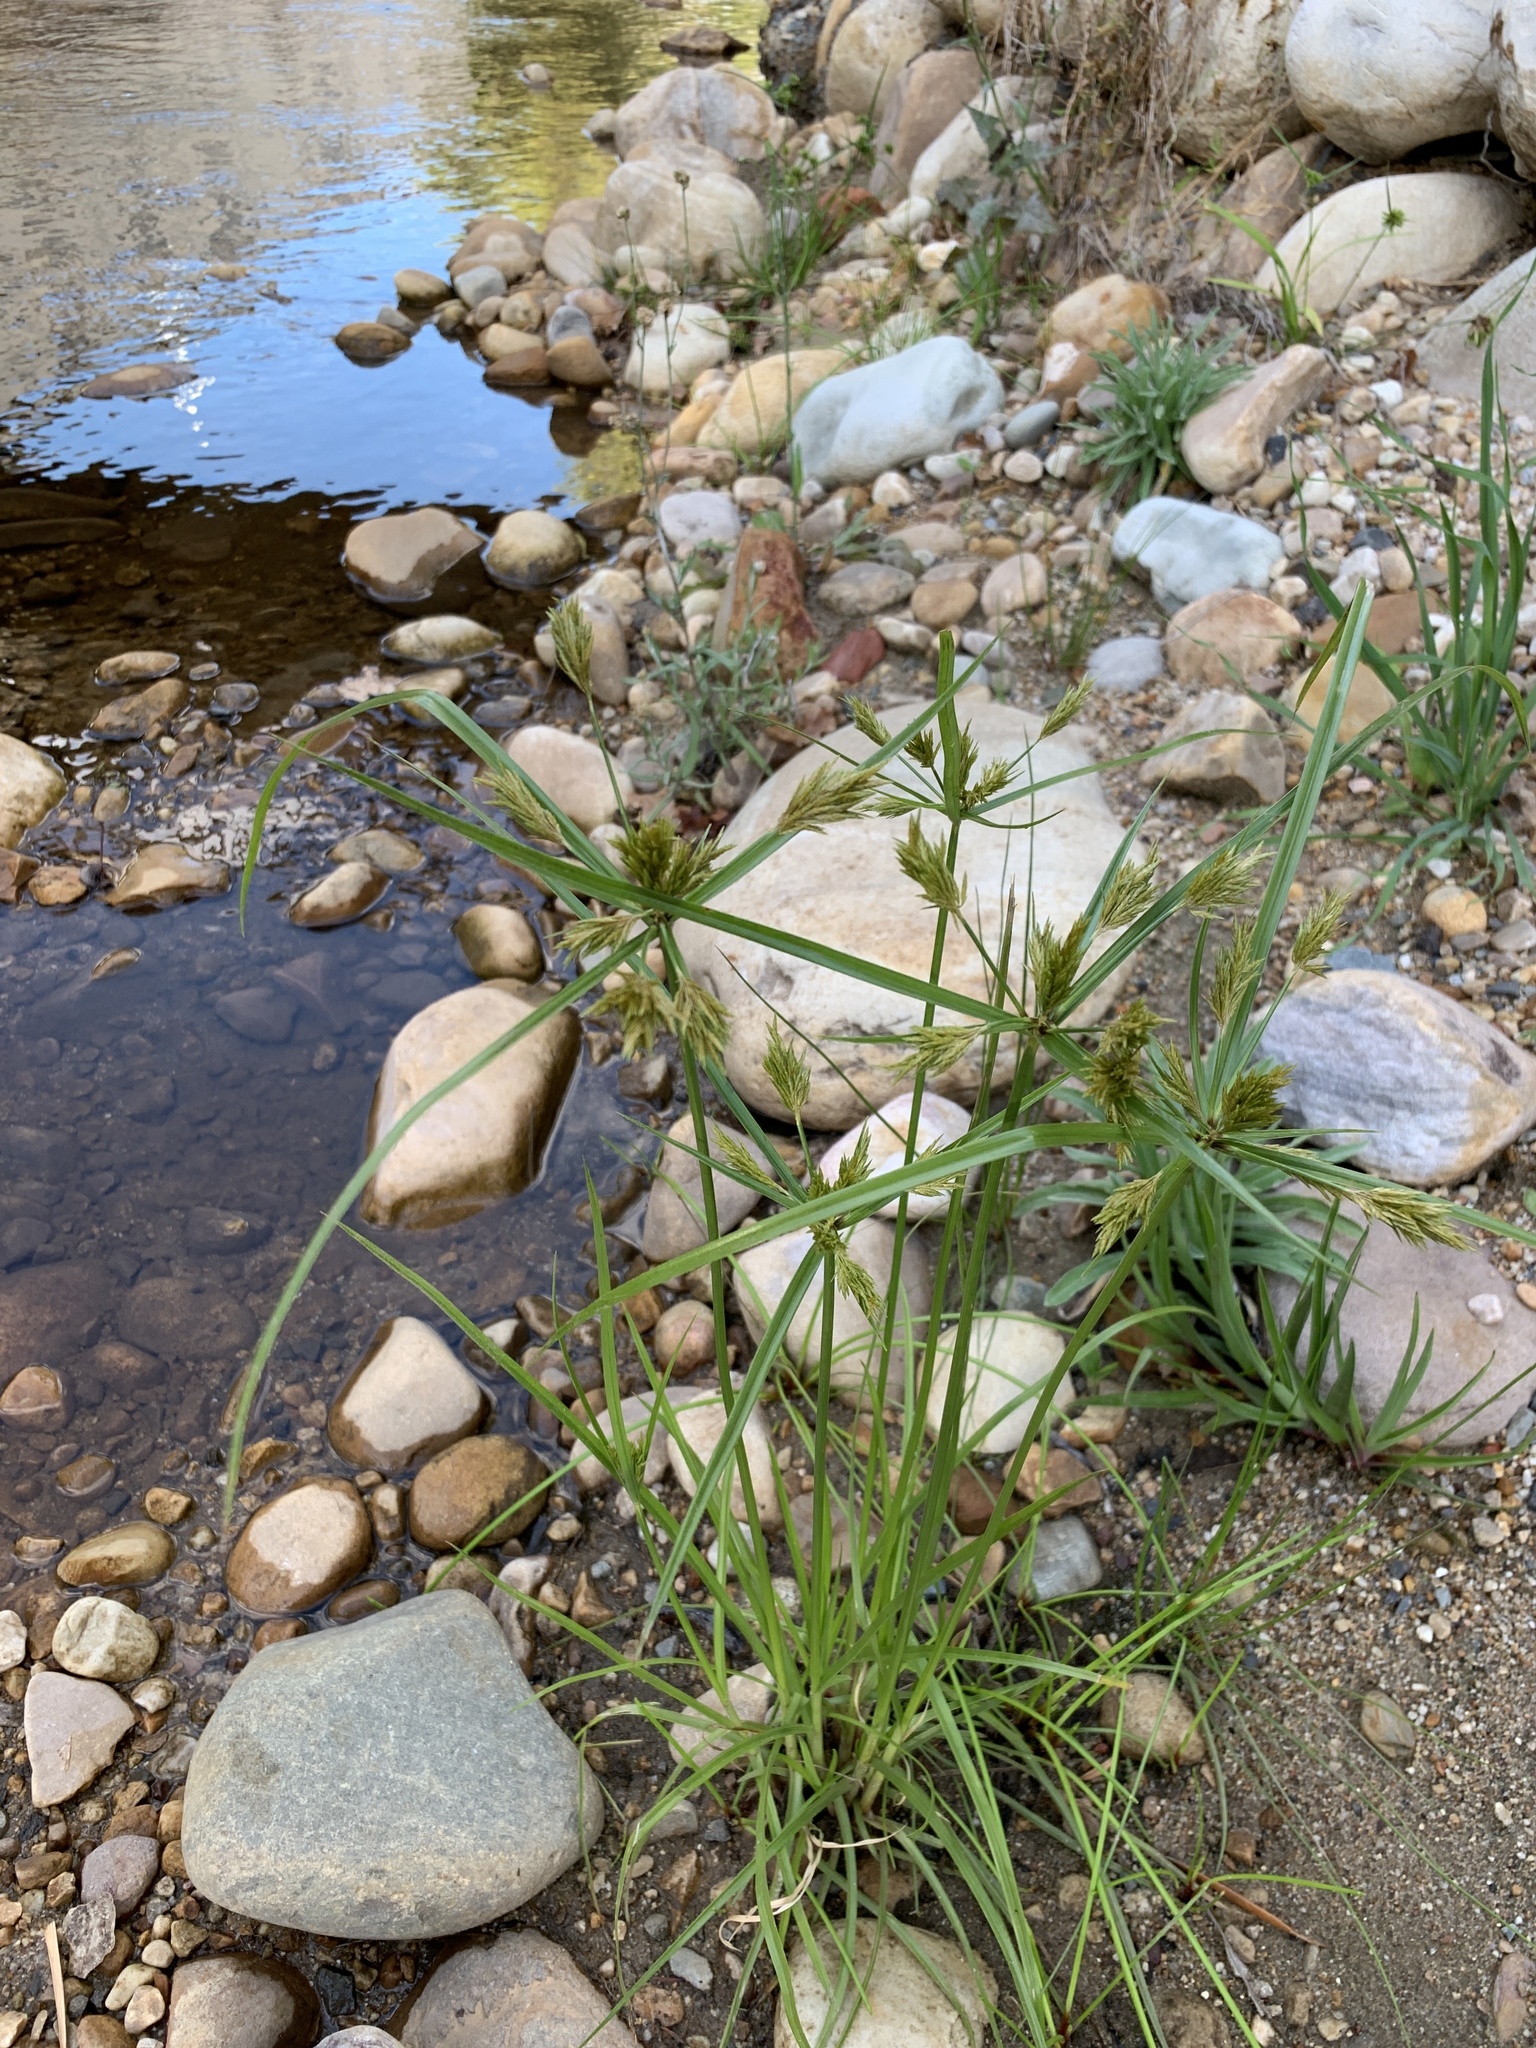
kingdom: Plantae
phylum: Tracheophyta
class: Liliopsida
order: Poales
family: Cyperaceae
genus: Cyperus
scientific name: Cyperus polystachyos
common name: Bunchy flat sedge
